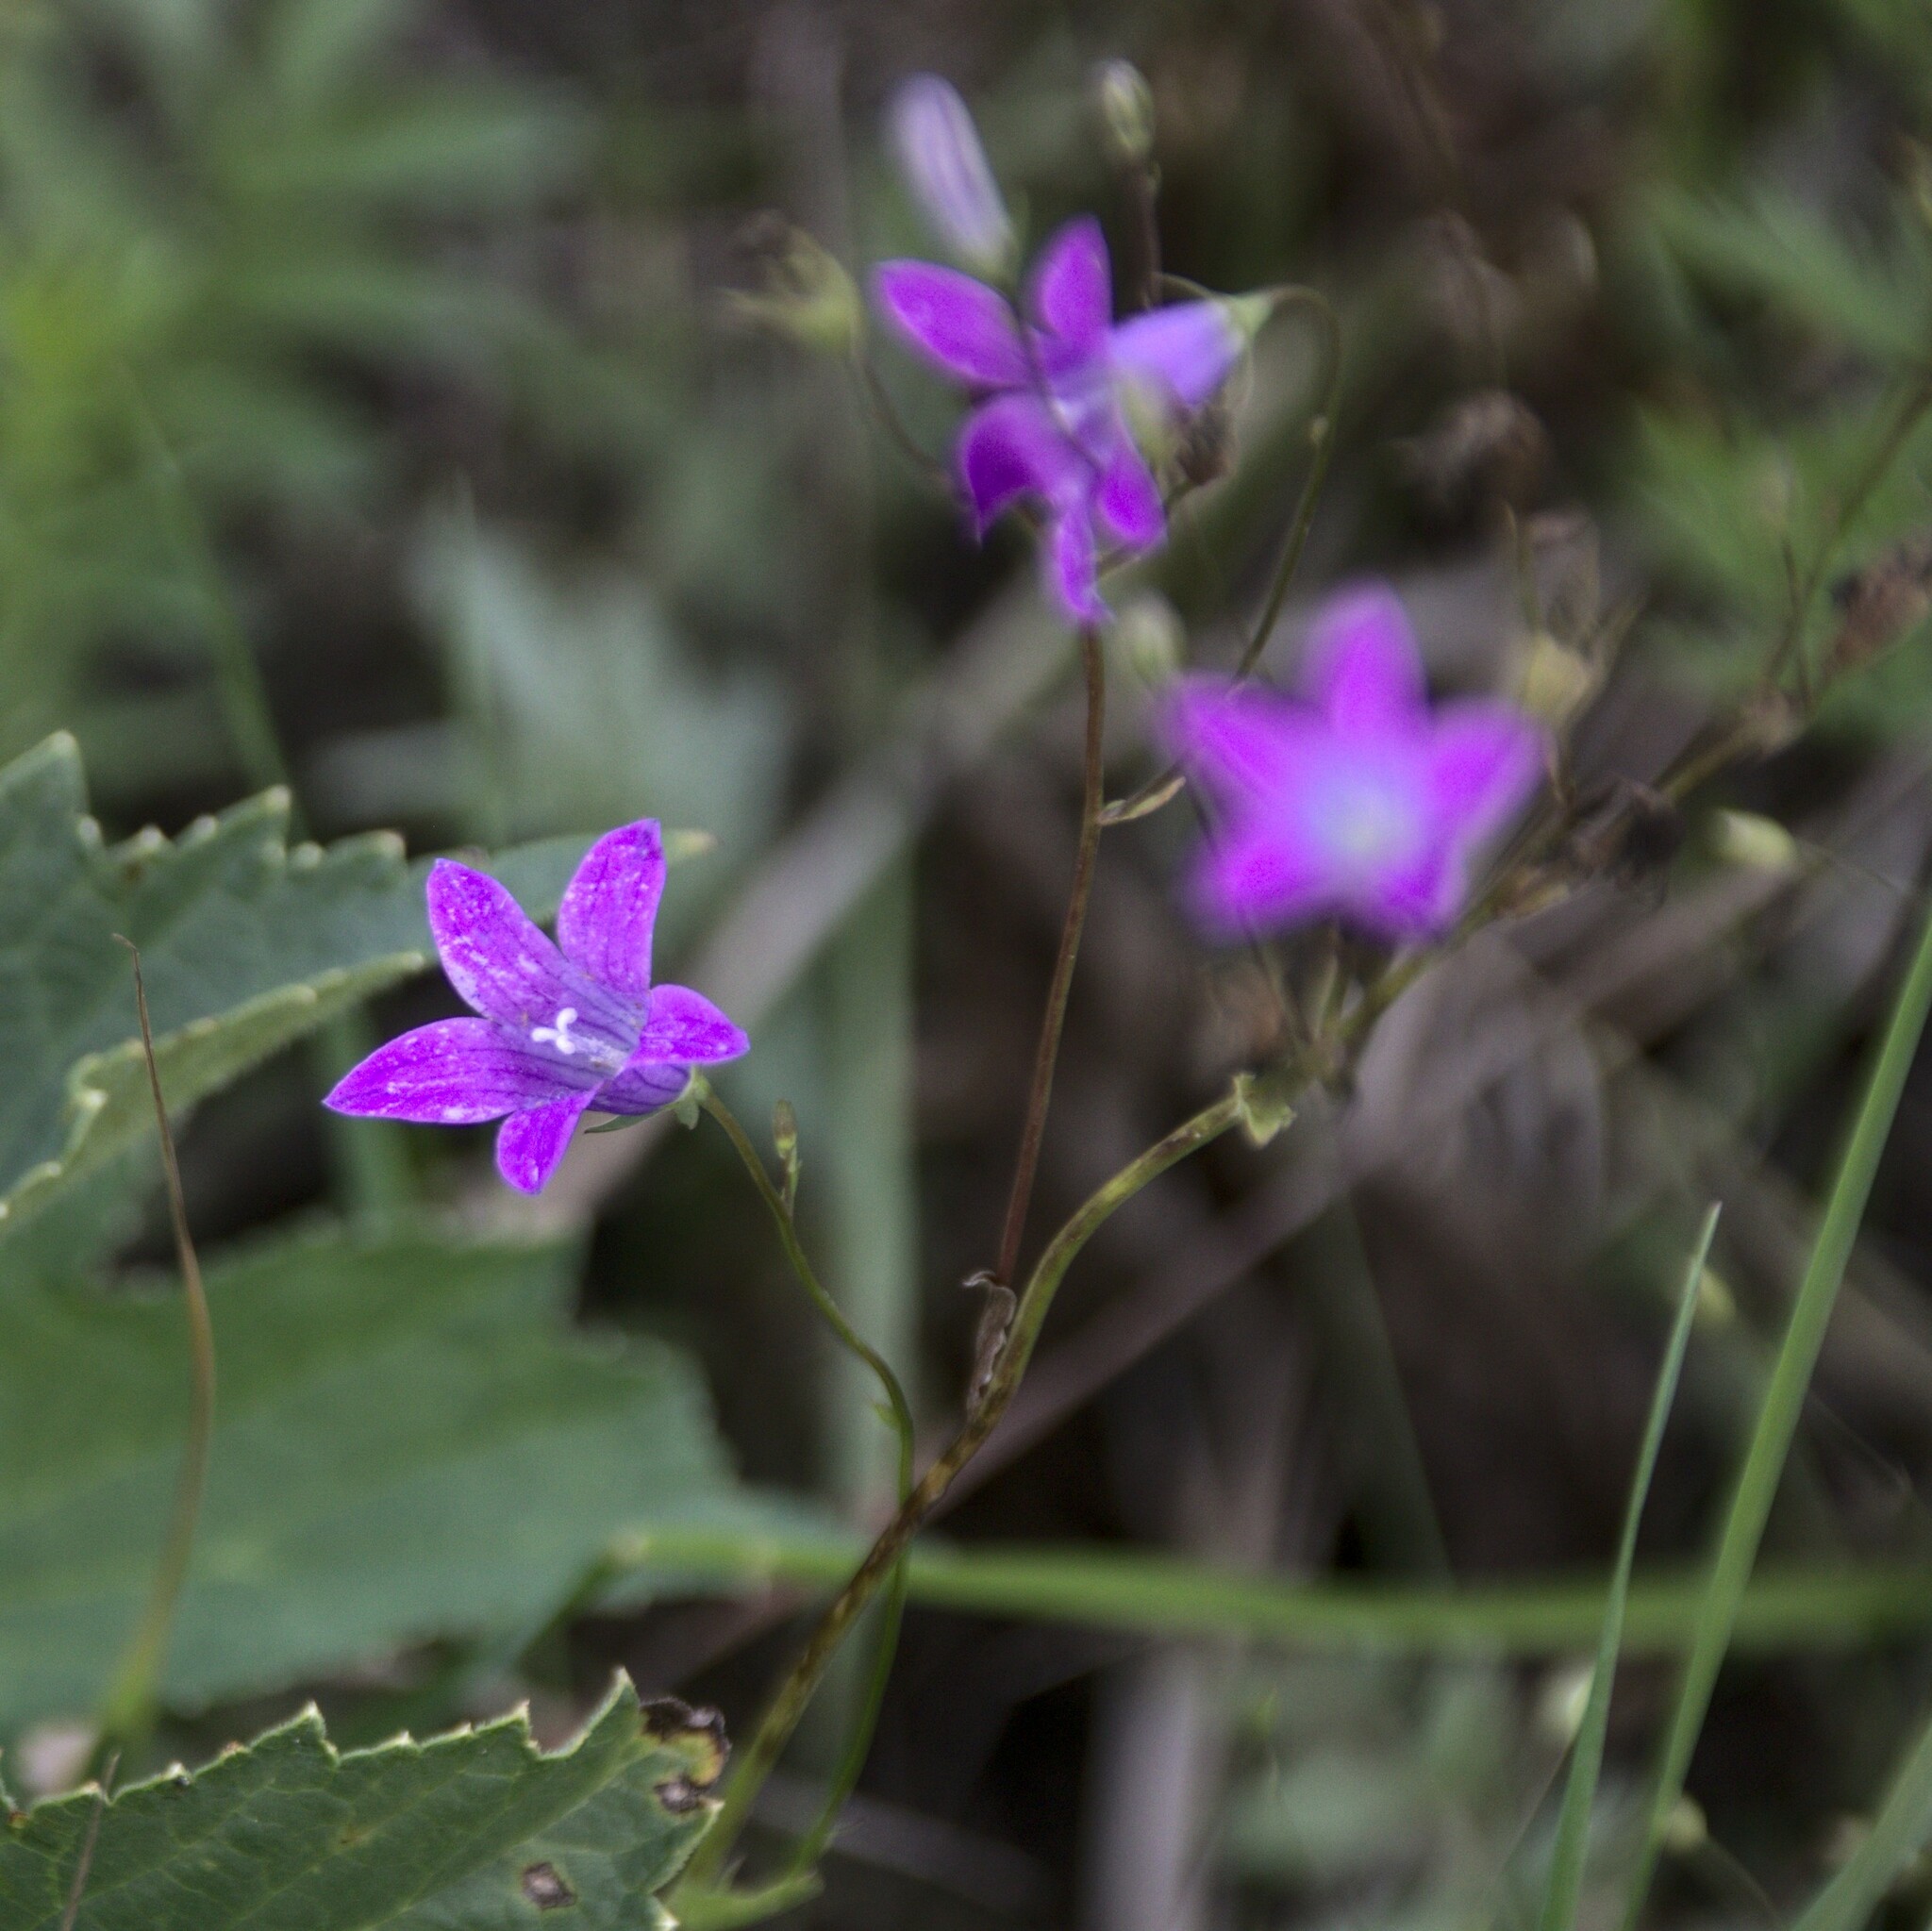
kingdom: Plantae
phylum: Tracheophyta
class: Magnoliopsida
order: Asterales
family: Campanulaceae
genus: Campanula
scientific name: Campanula patula
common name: Spreading bellflower
